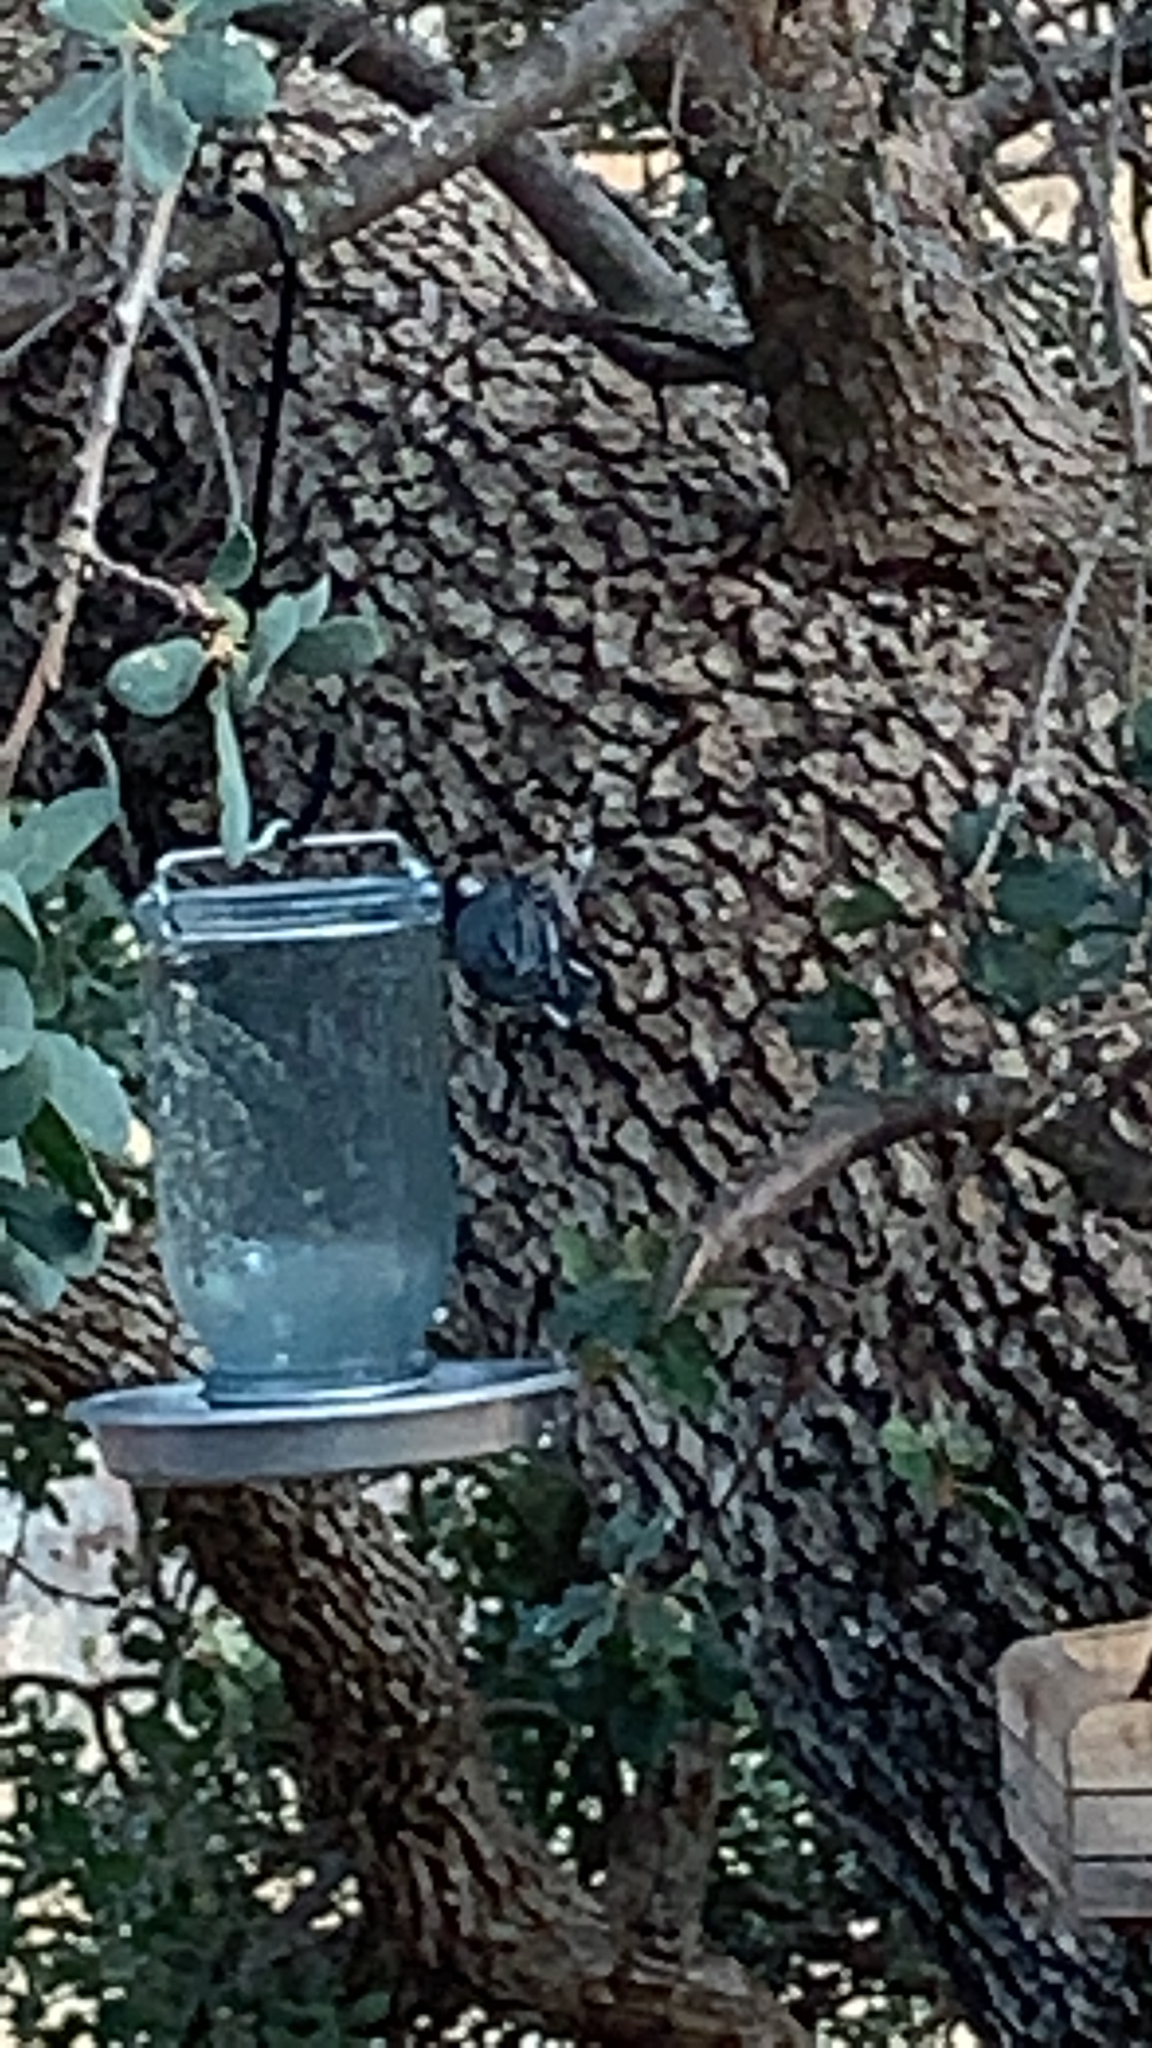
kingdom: Animalia
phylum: Chordata
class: Aves
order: Passeriformes
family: Sittidae
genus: Sitta
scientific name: Sitta carolinensis
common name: White-breasted nuthatch
